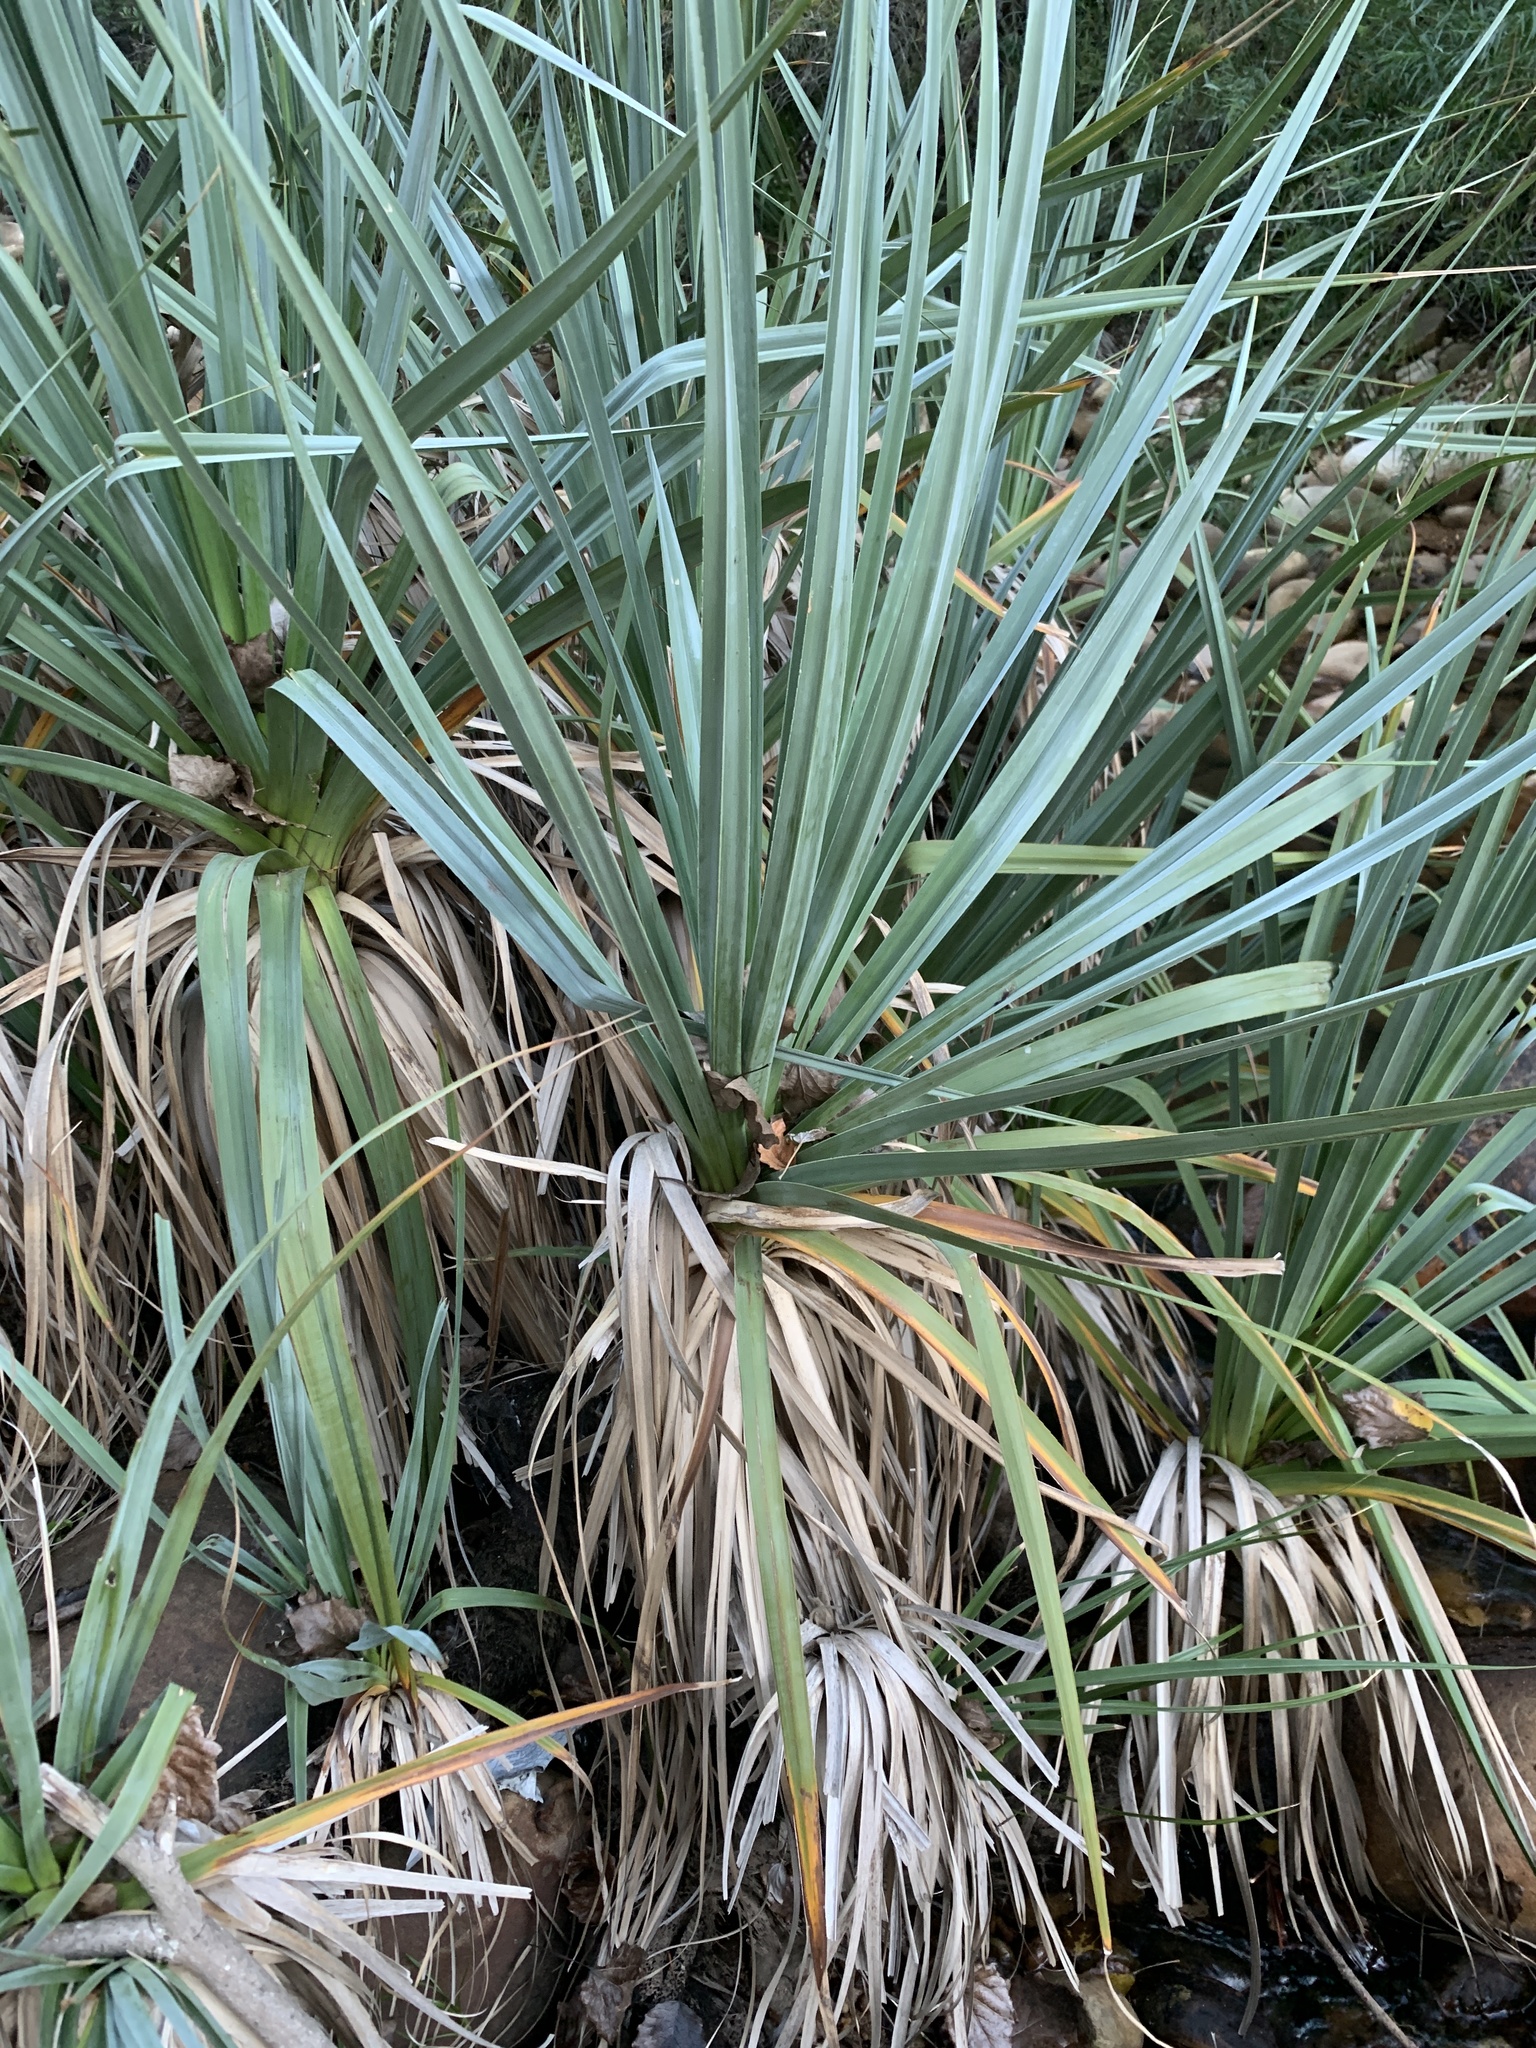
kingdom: Plantae
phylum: Tracheophyta
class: Liliopsida
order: Poales
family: Thurniaceae
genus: Prionium
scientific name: Prionium serratum
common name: Palmiet
